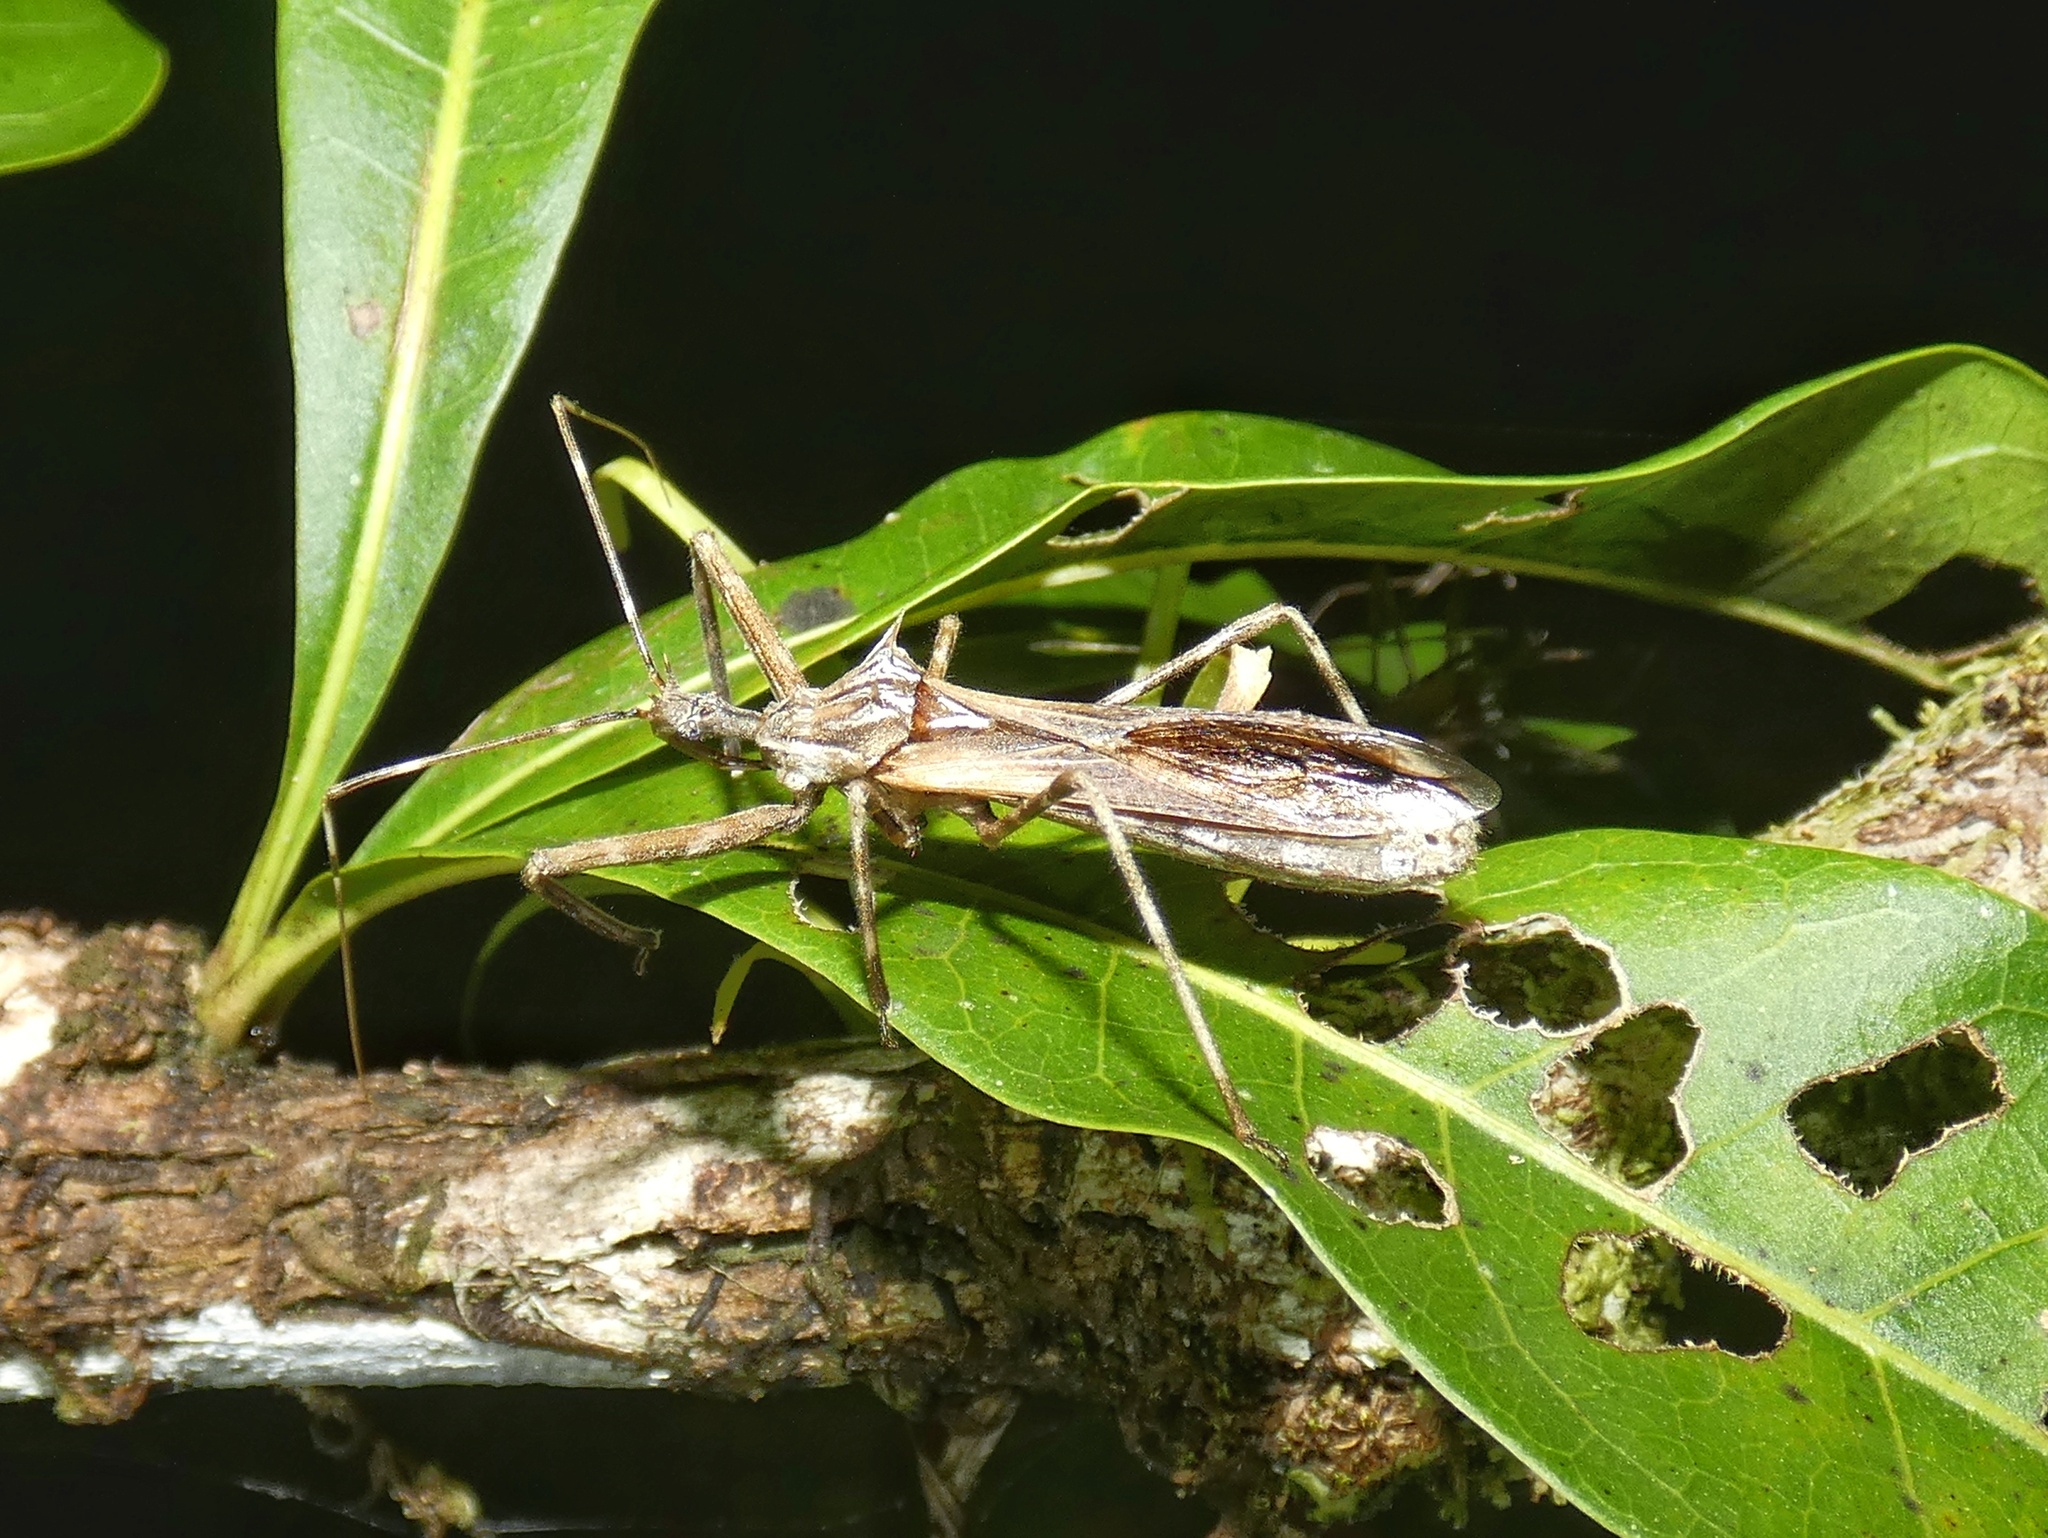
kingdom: Animalia
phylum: Arthropoda
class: Insecta
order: Hemiptera
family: Reduviidae
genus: Heza
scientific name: Heza fuscinervis
